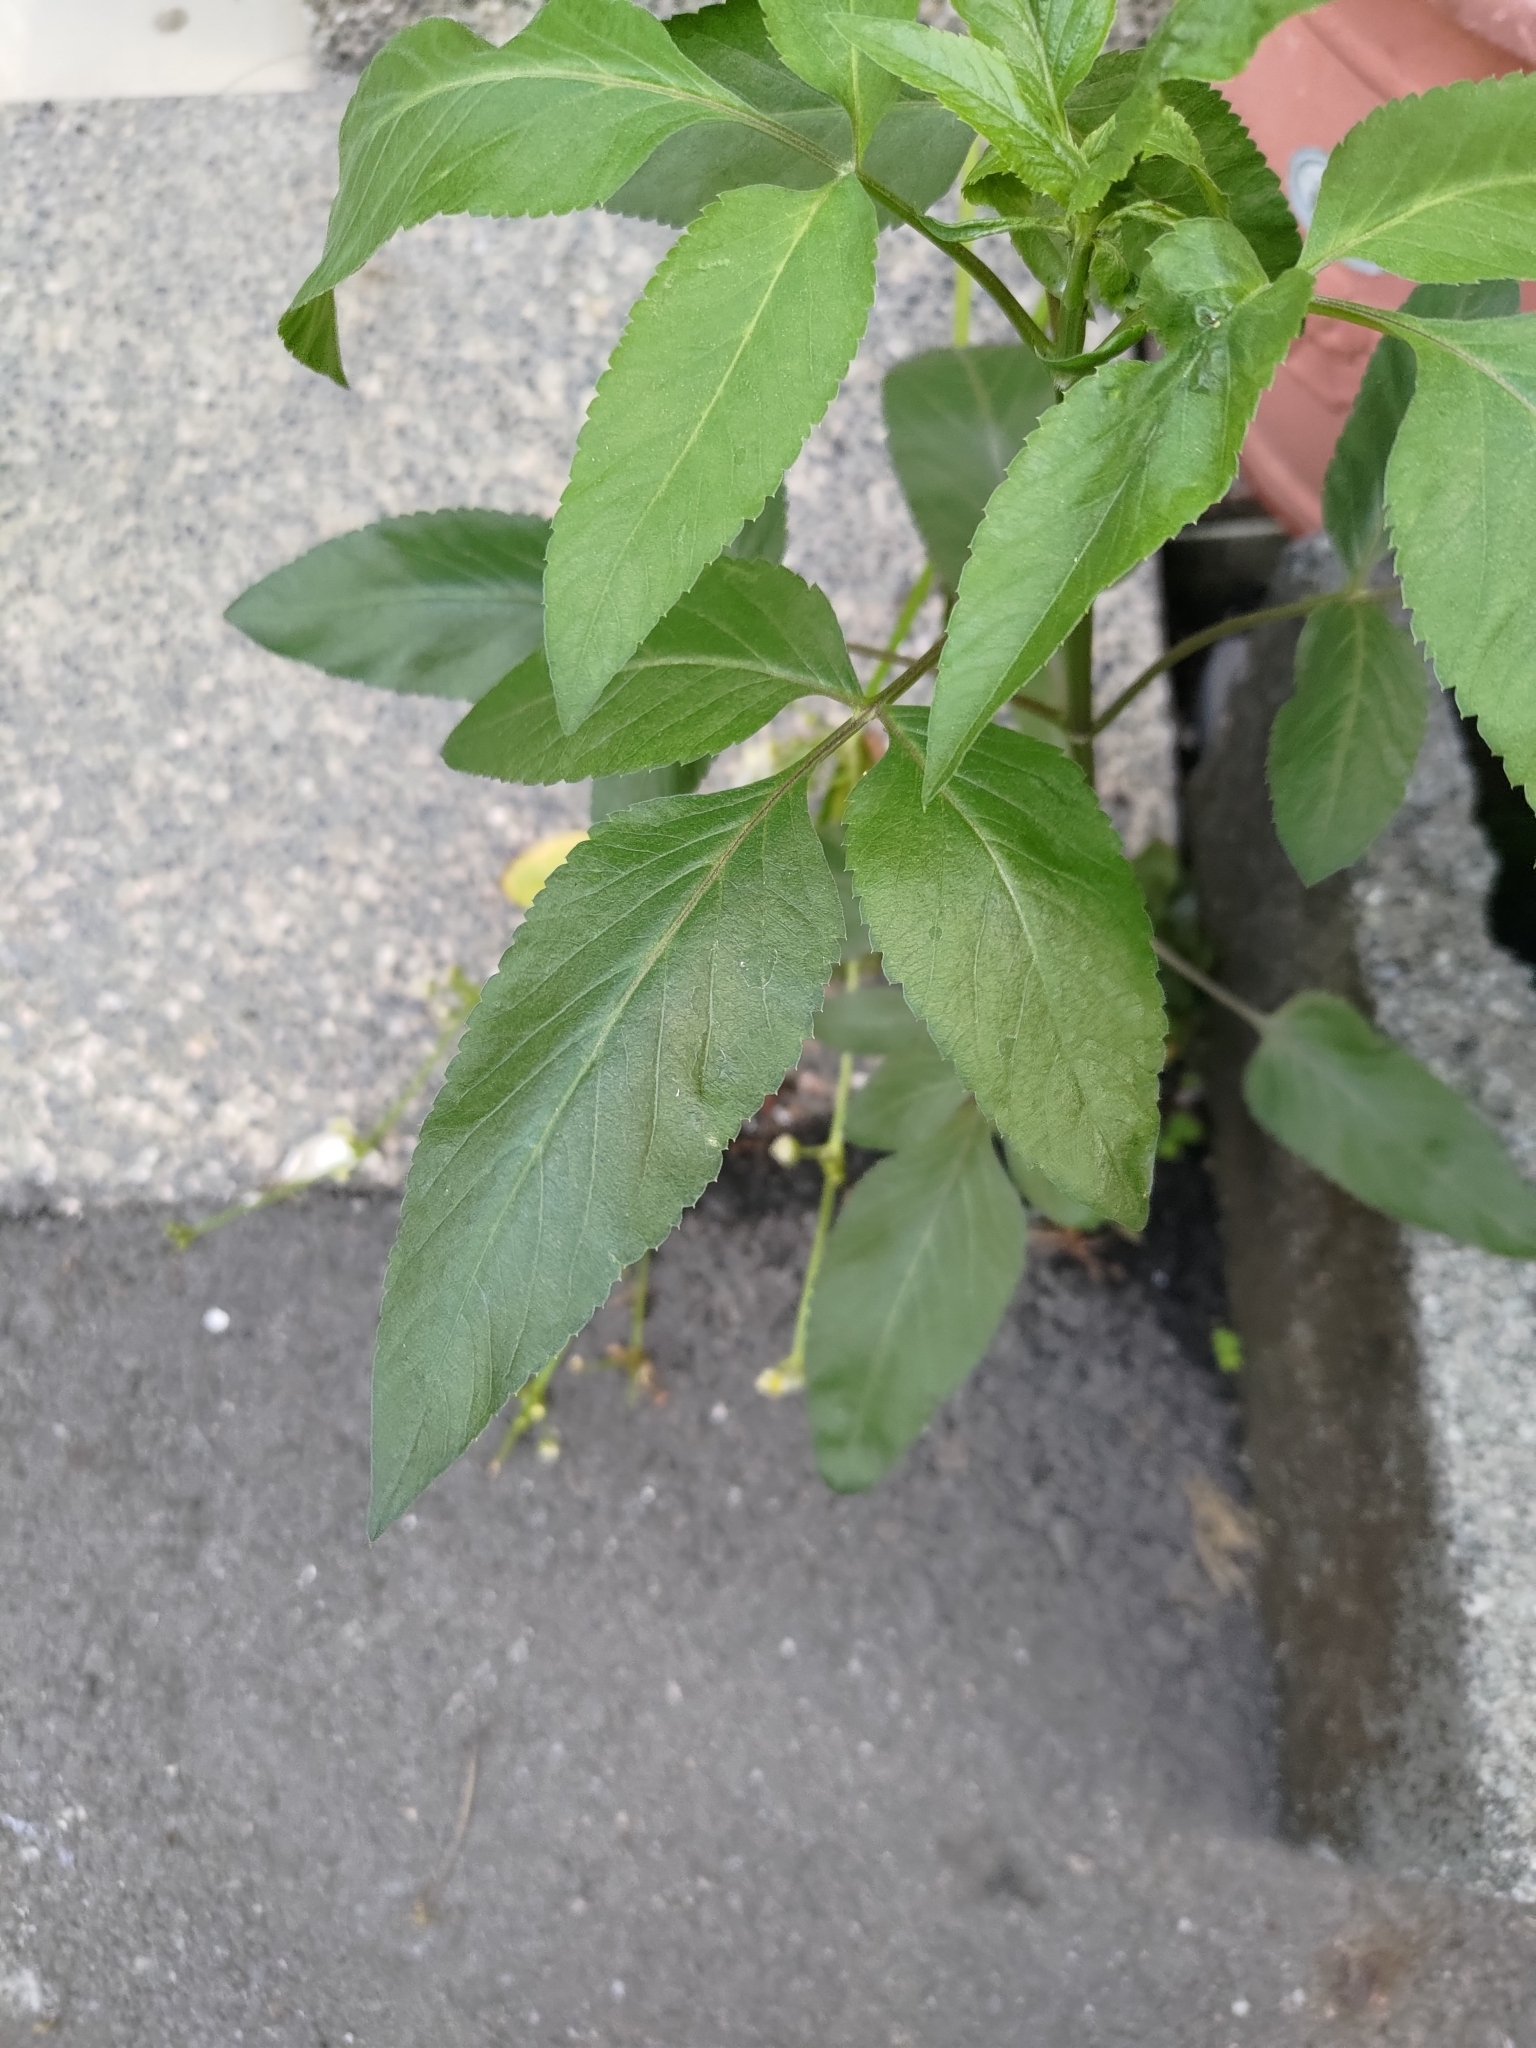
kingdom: Plantae
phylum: Tracheophyta
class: Magnoliopsida
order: Asterales
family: Asteraceae
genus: Bidens
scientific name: Bidens alba
